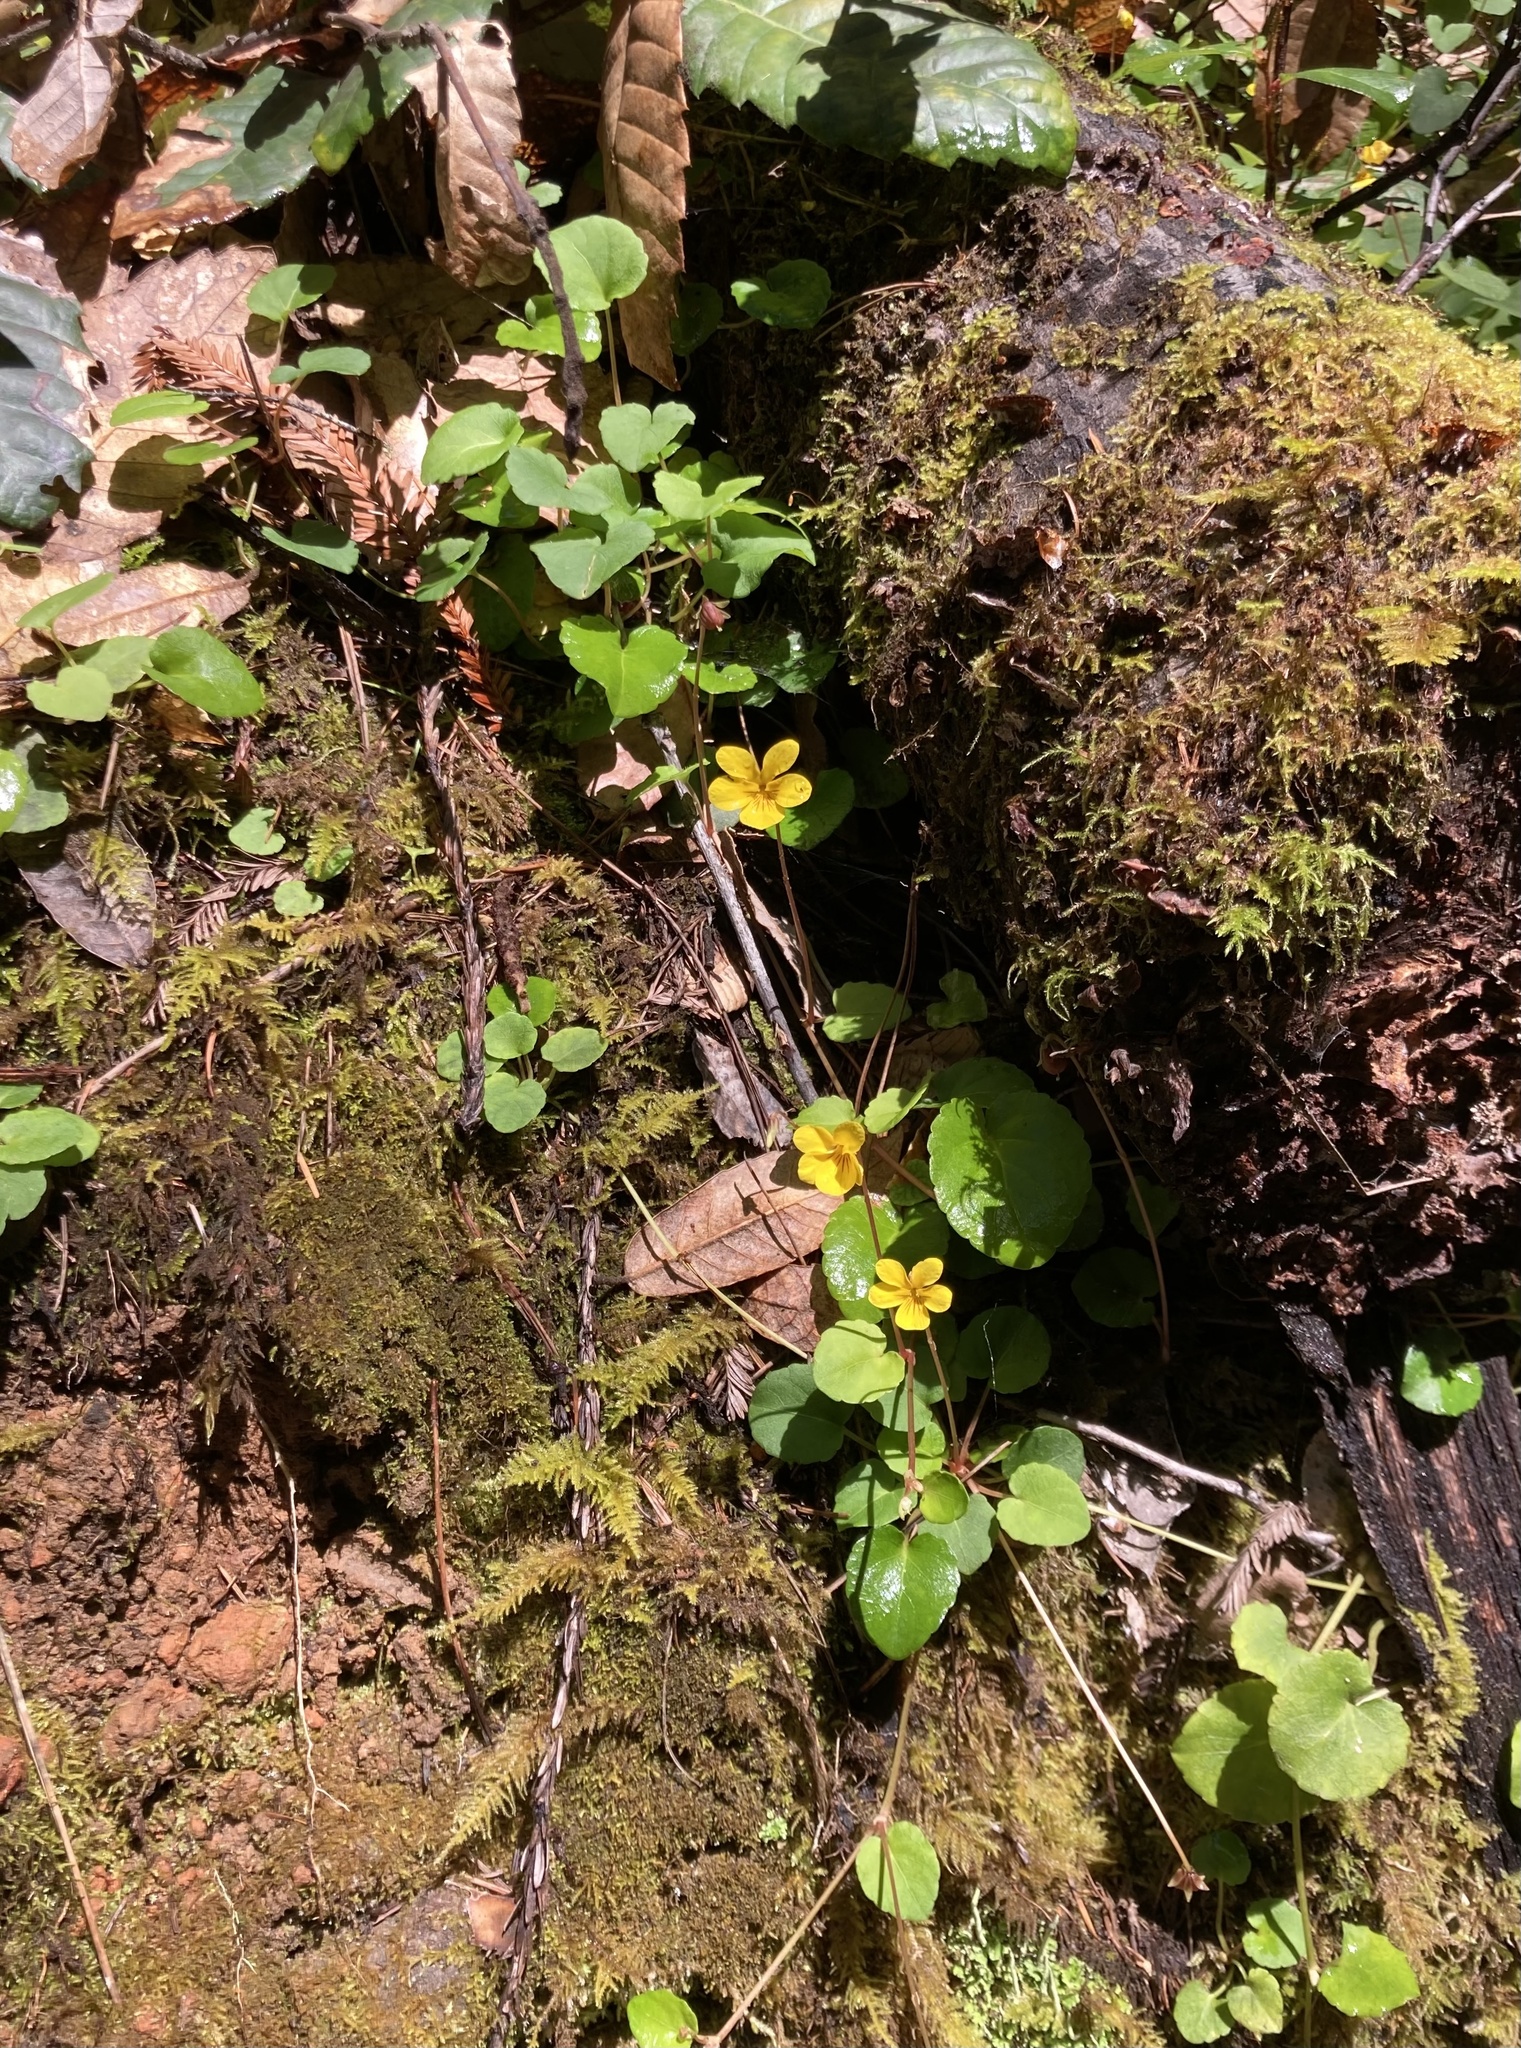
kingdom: Plantae
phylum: Tracheophyta
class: Magnoliopsida
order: Malpighiales
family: Violaceae
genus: Viola
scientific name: Viola sempervirens
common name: Evergreen violet
